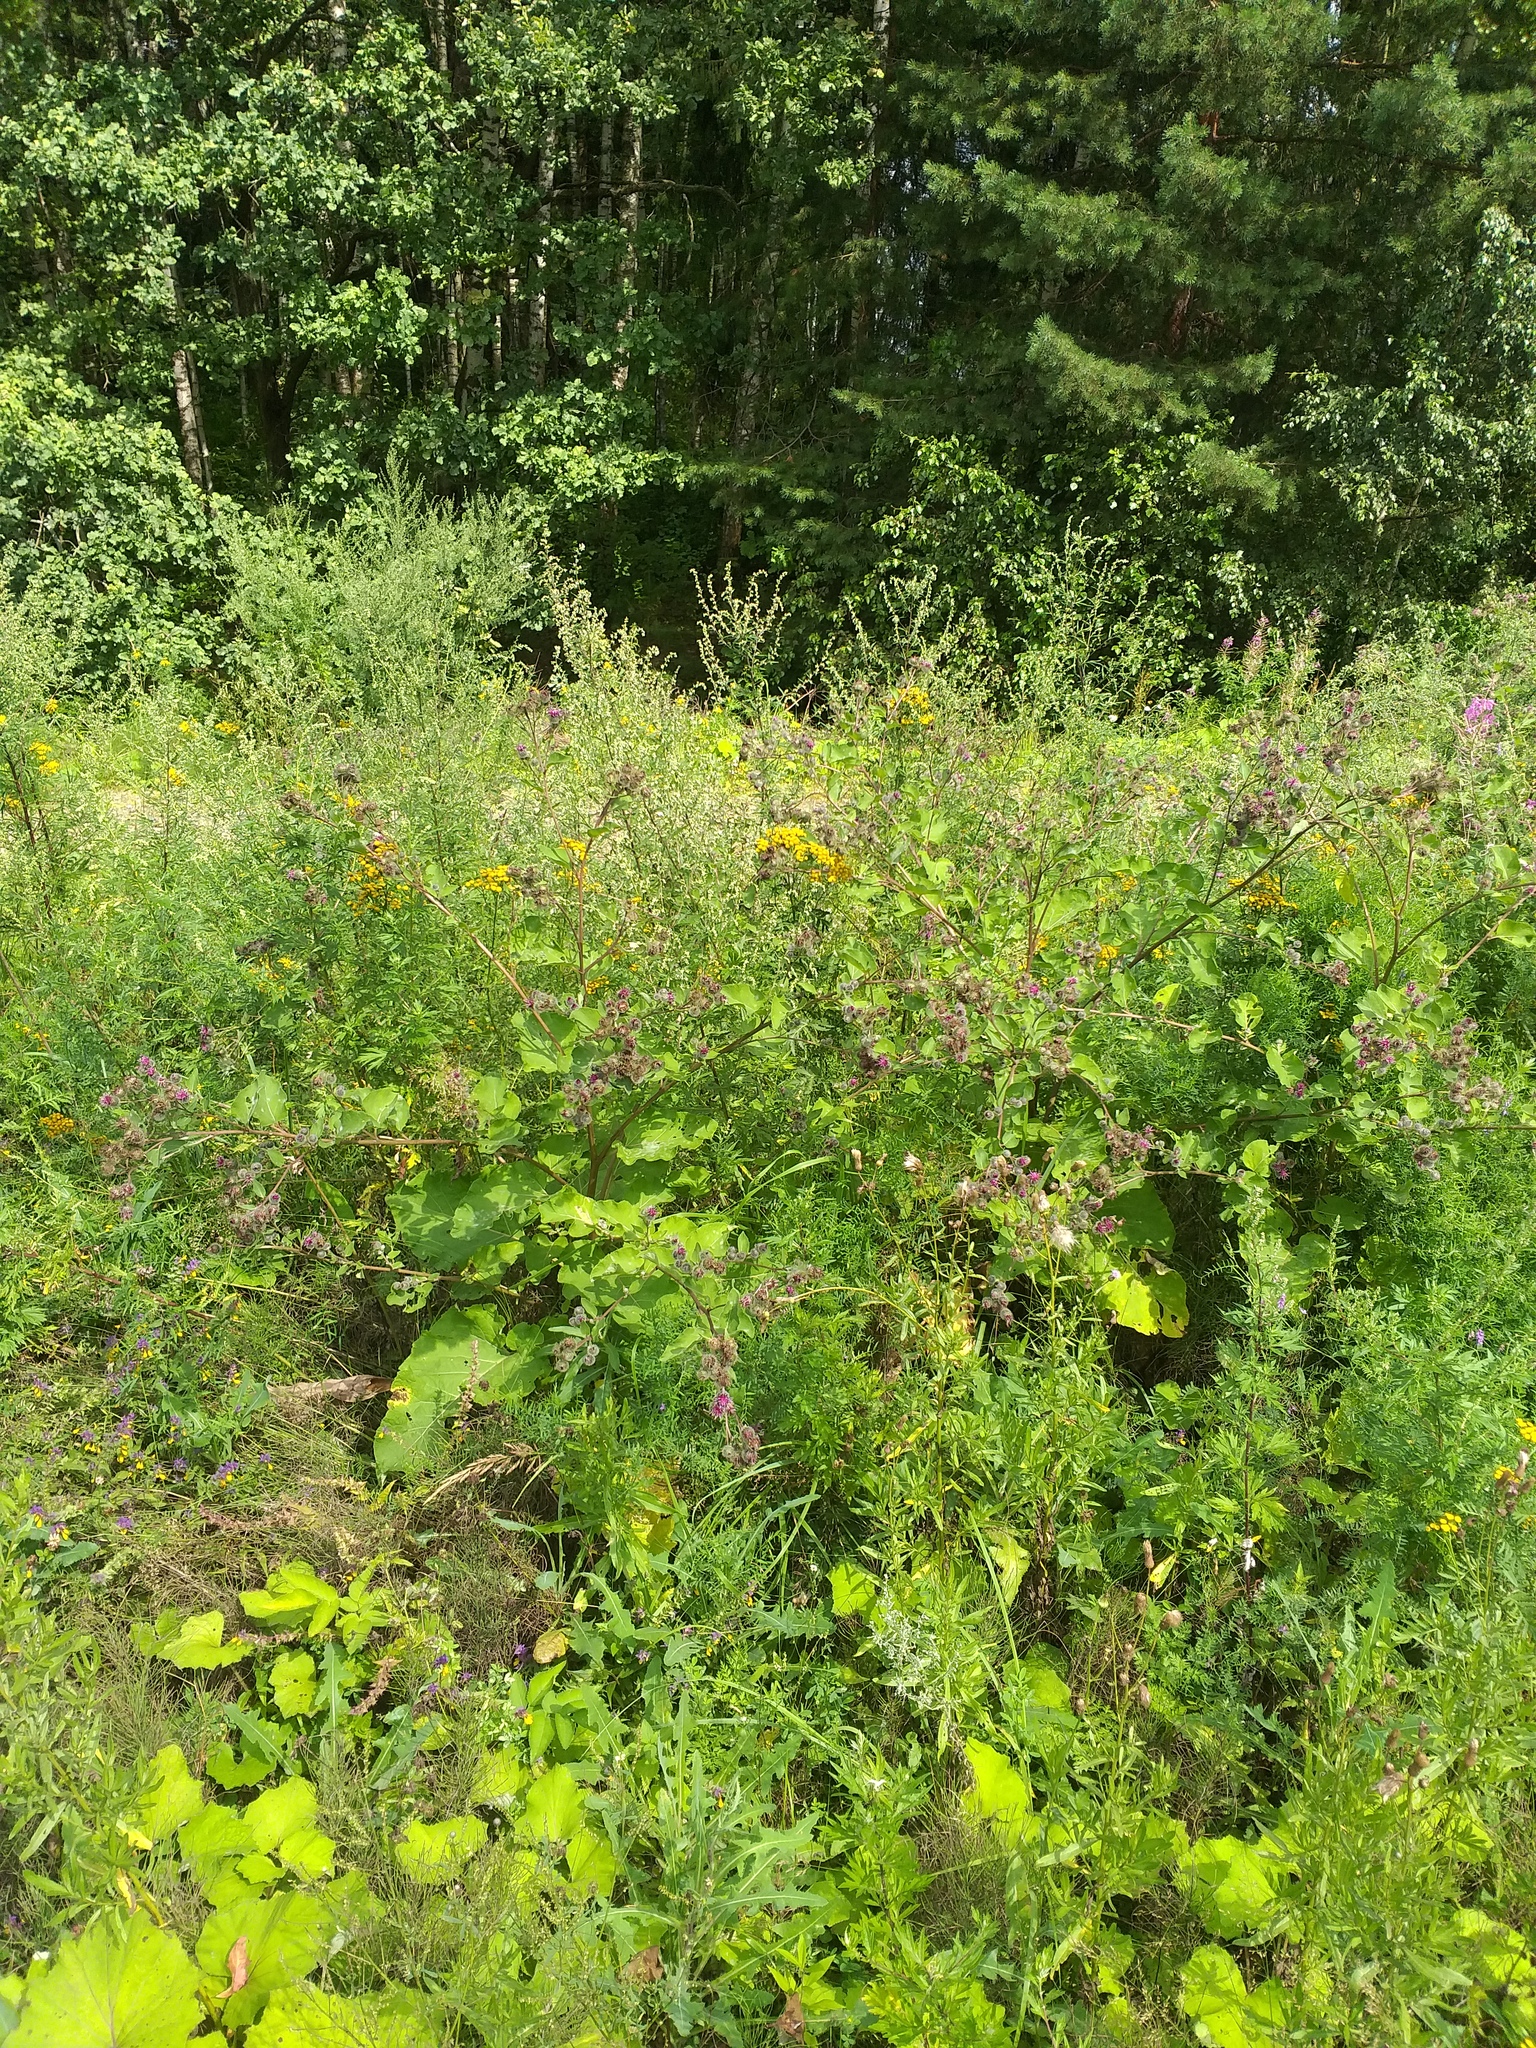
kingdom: Plantae
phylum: Tracheophyta
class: Magnoliopsida
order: Asterales
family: Asteraceae
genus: Arctium
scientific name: Arctium tomentosum
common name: Woolly burdock
